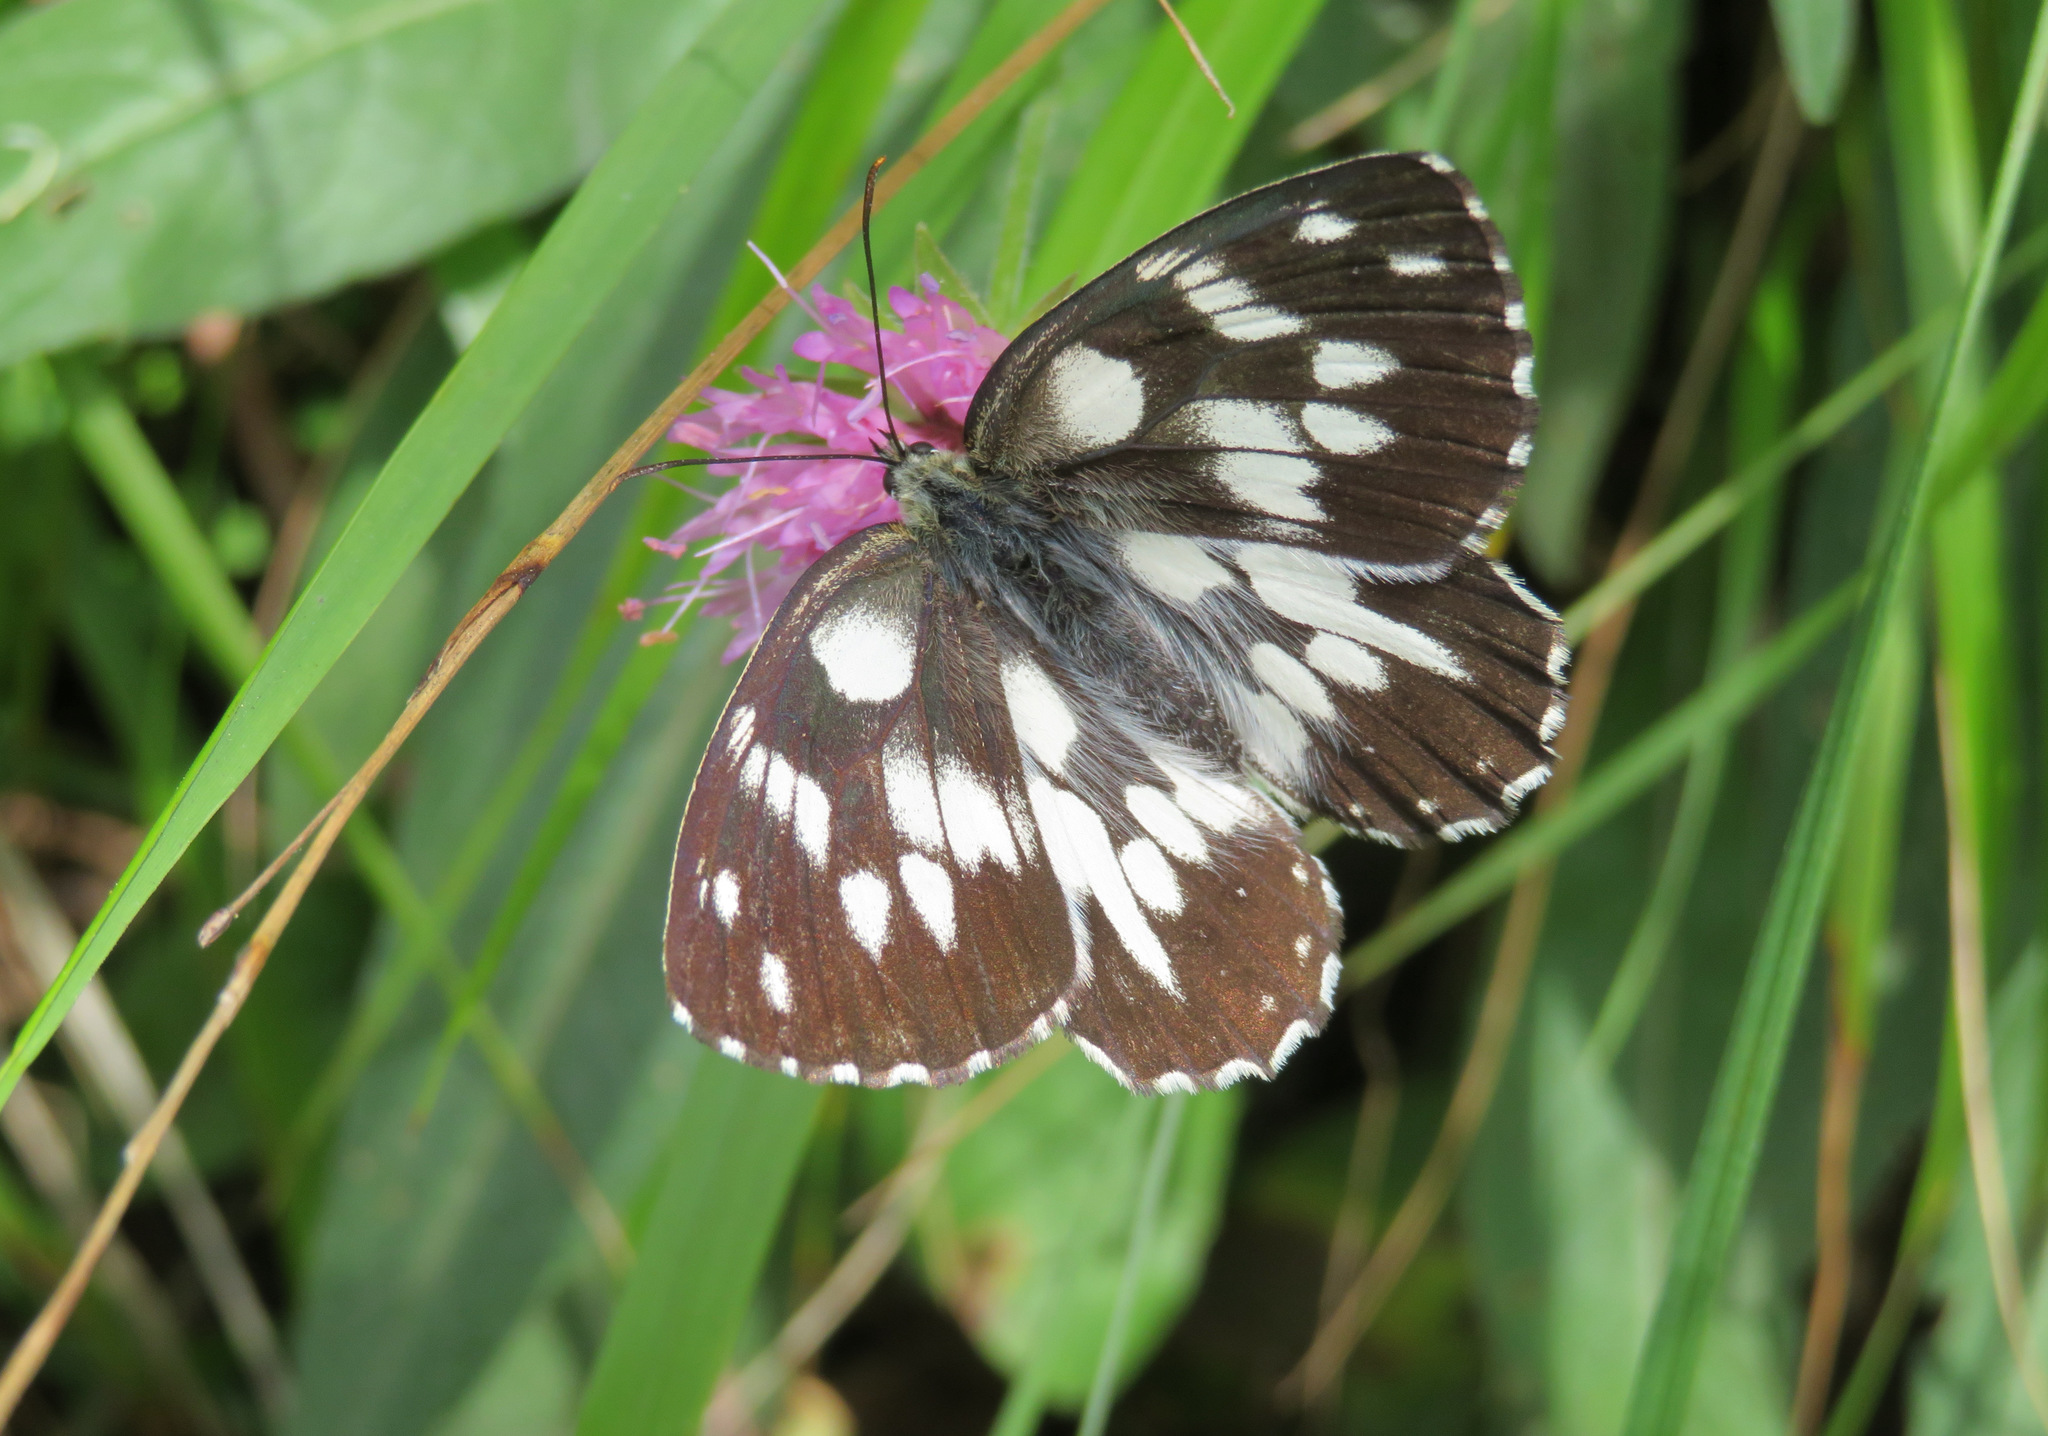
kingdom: Animalia
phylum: Arthropoda
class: Insecta
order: Lepidoptera
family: Nymphalidae
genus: Melanargia
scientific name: Melanargia galathea
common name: Marbled white
